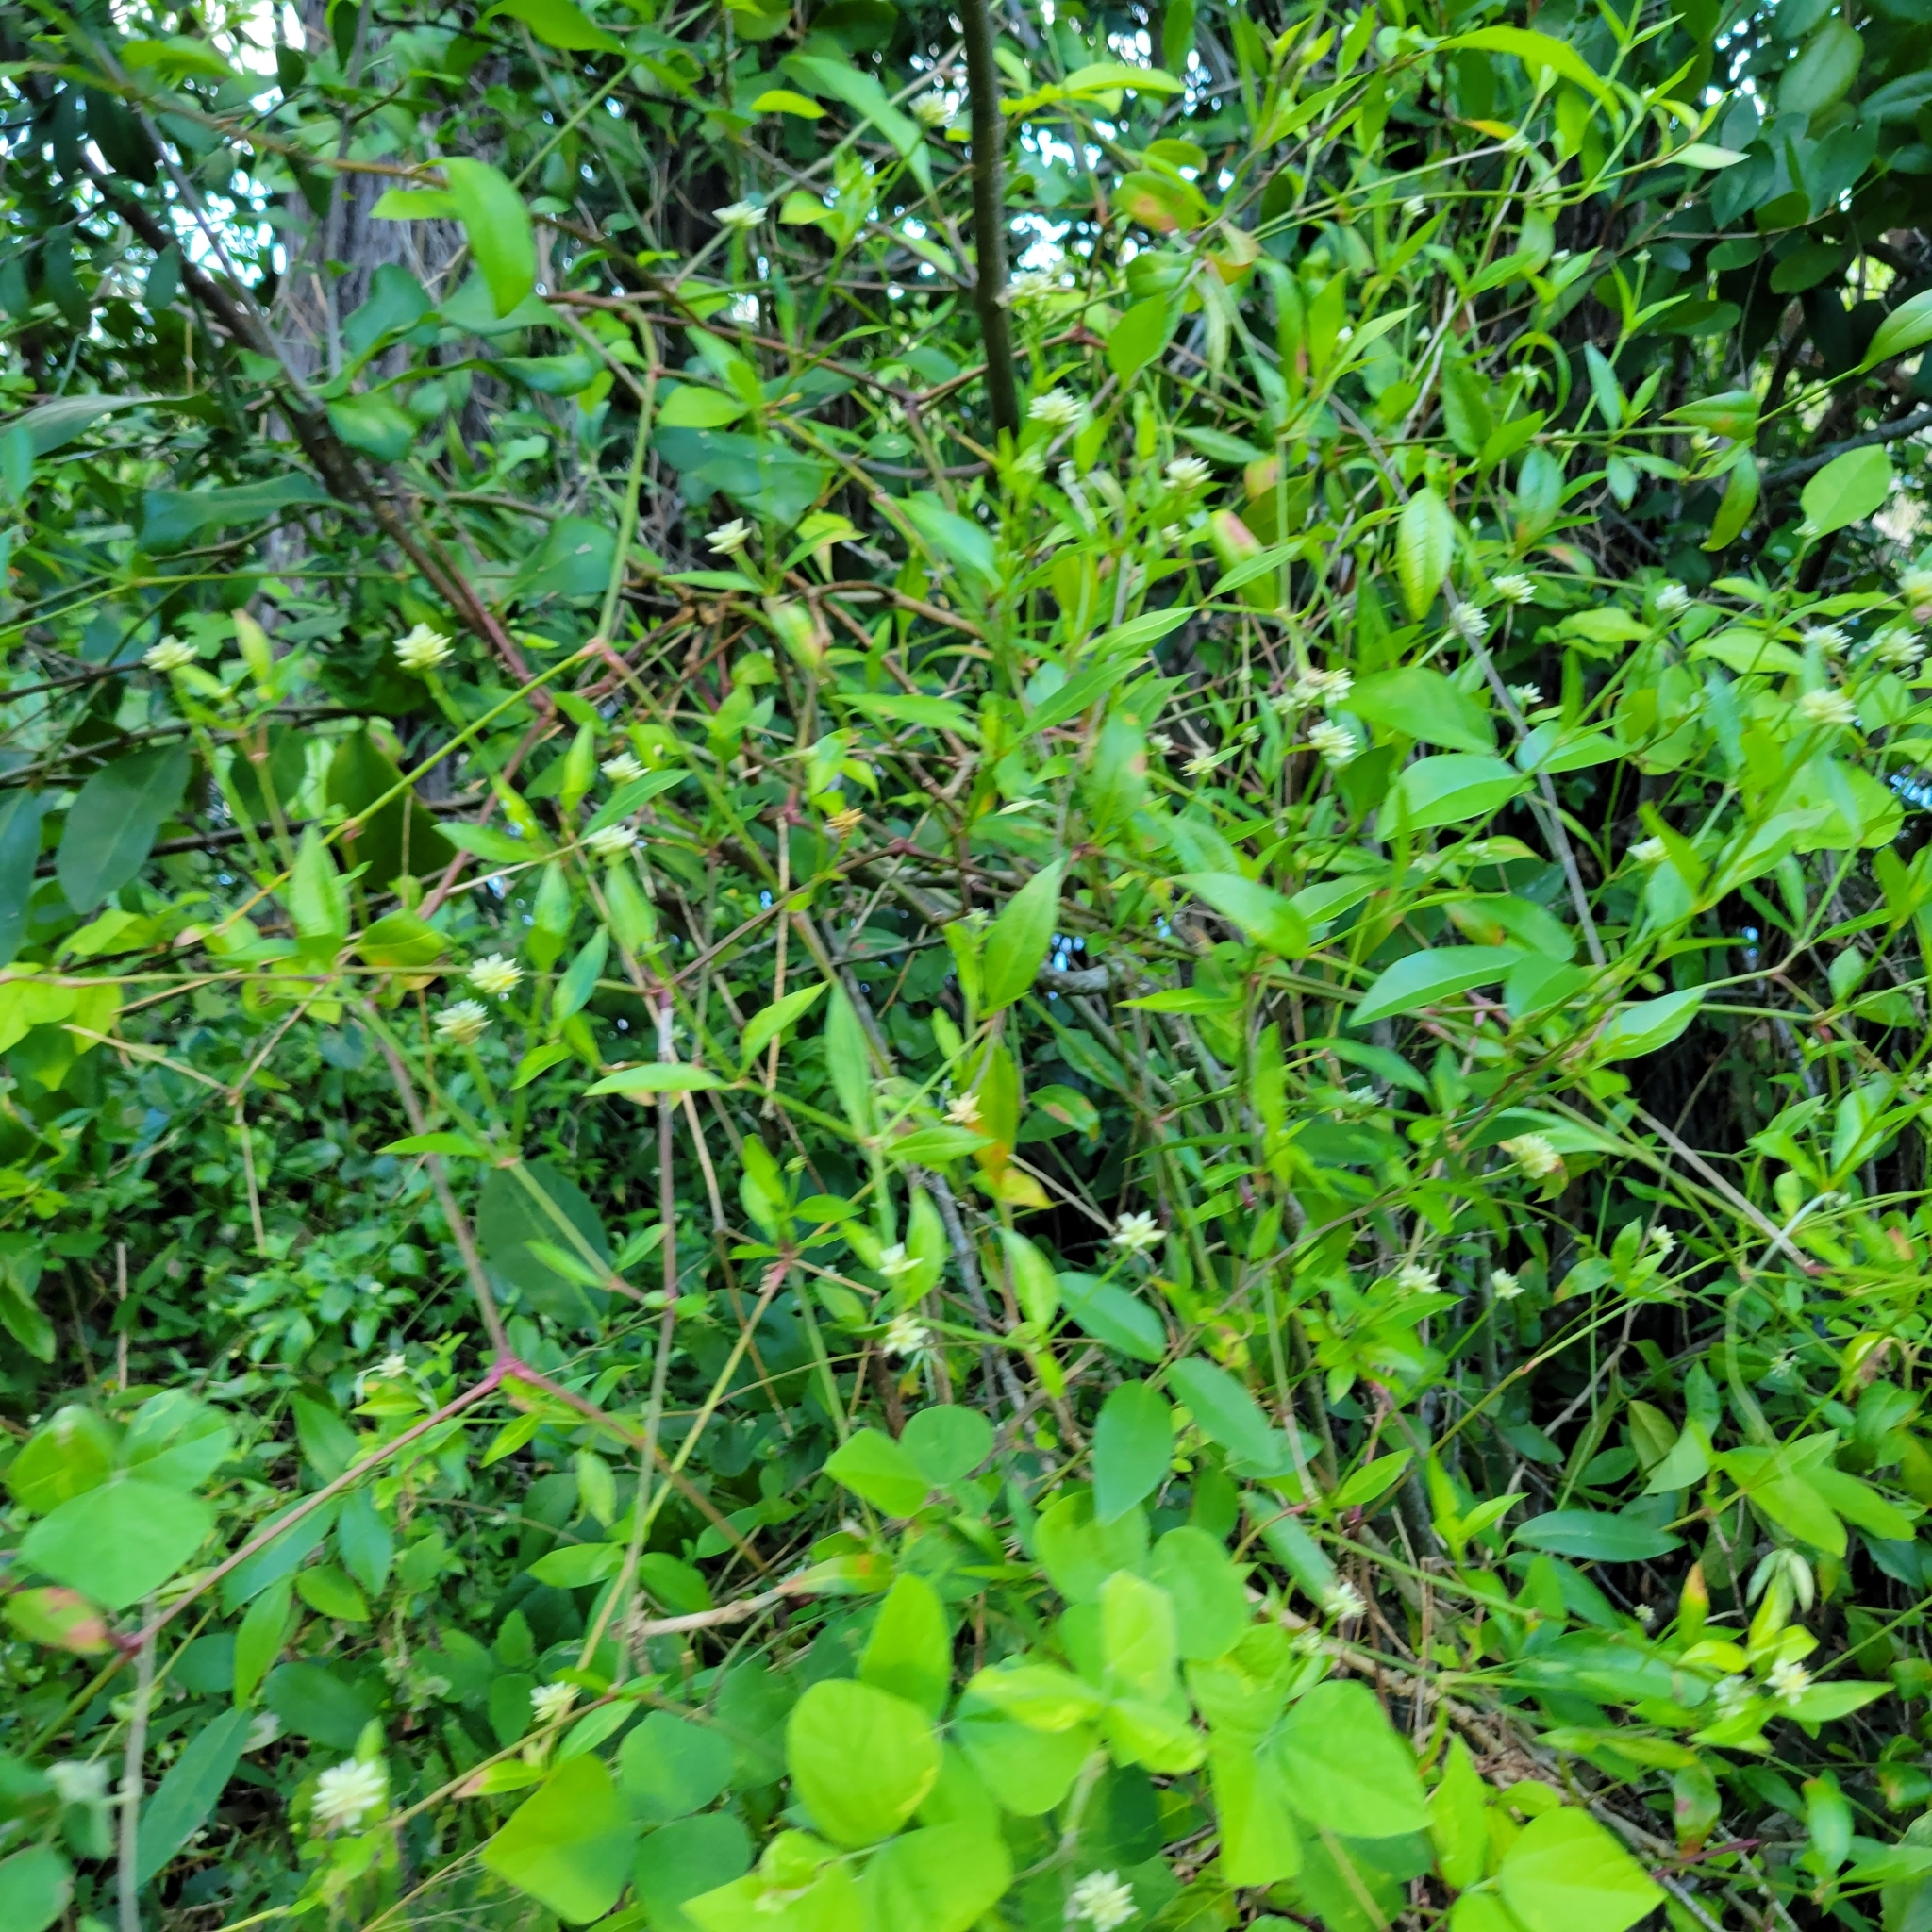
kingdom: Plantae
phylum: Tracheophyta
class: Magnoliopsida
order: Caryophyllales
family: Amaranthaceae
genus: Alternanthera
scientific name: Alternanthera flavescens
